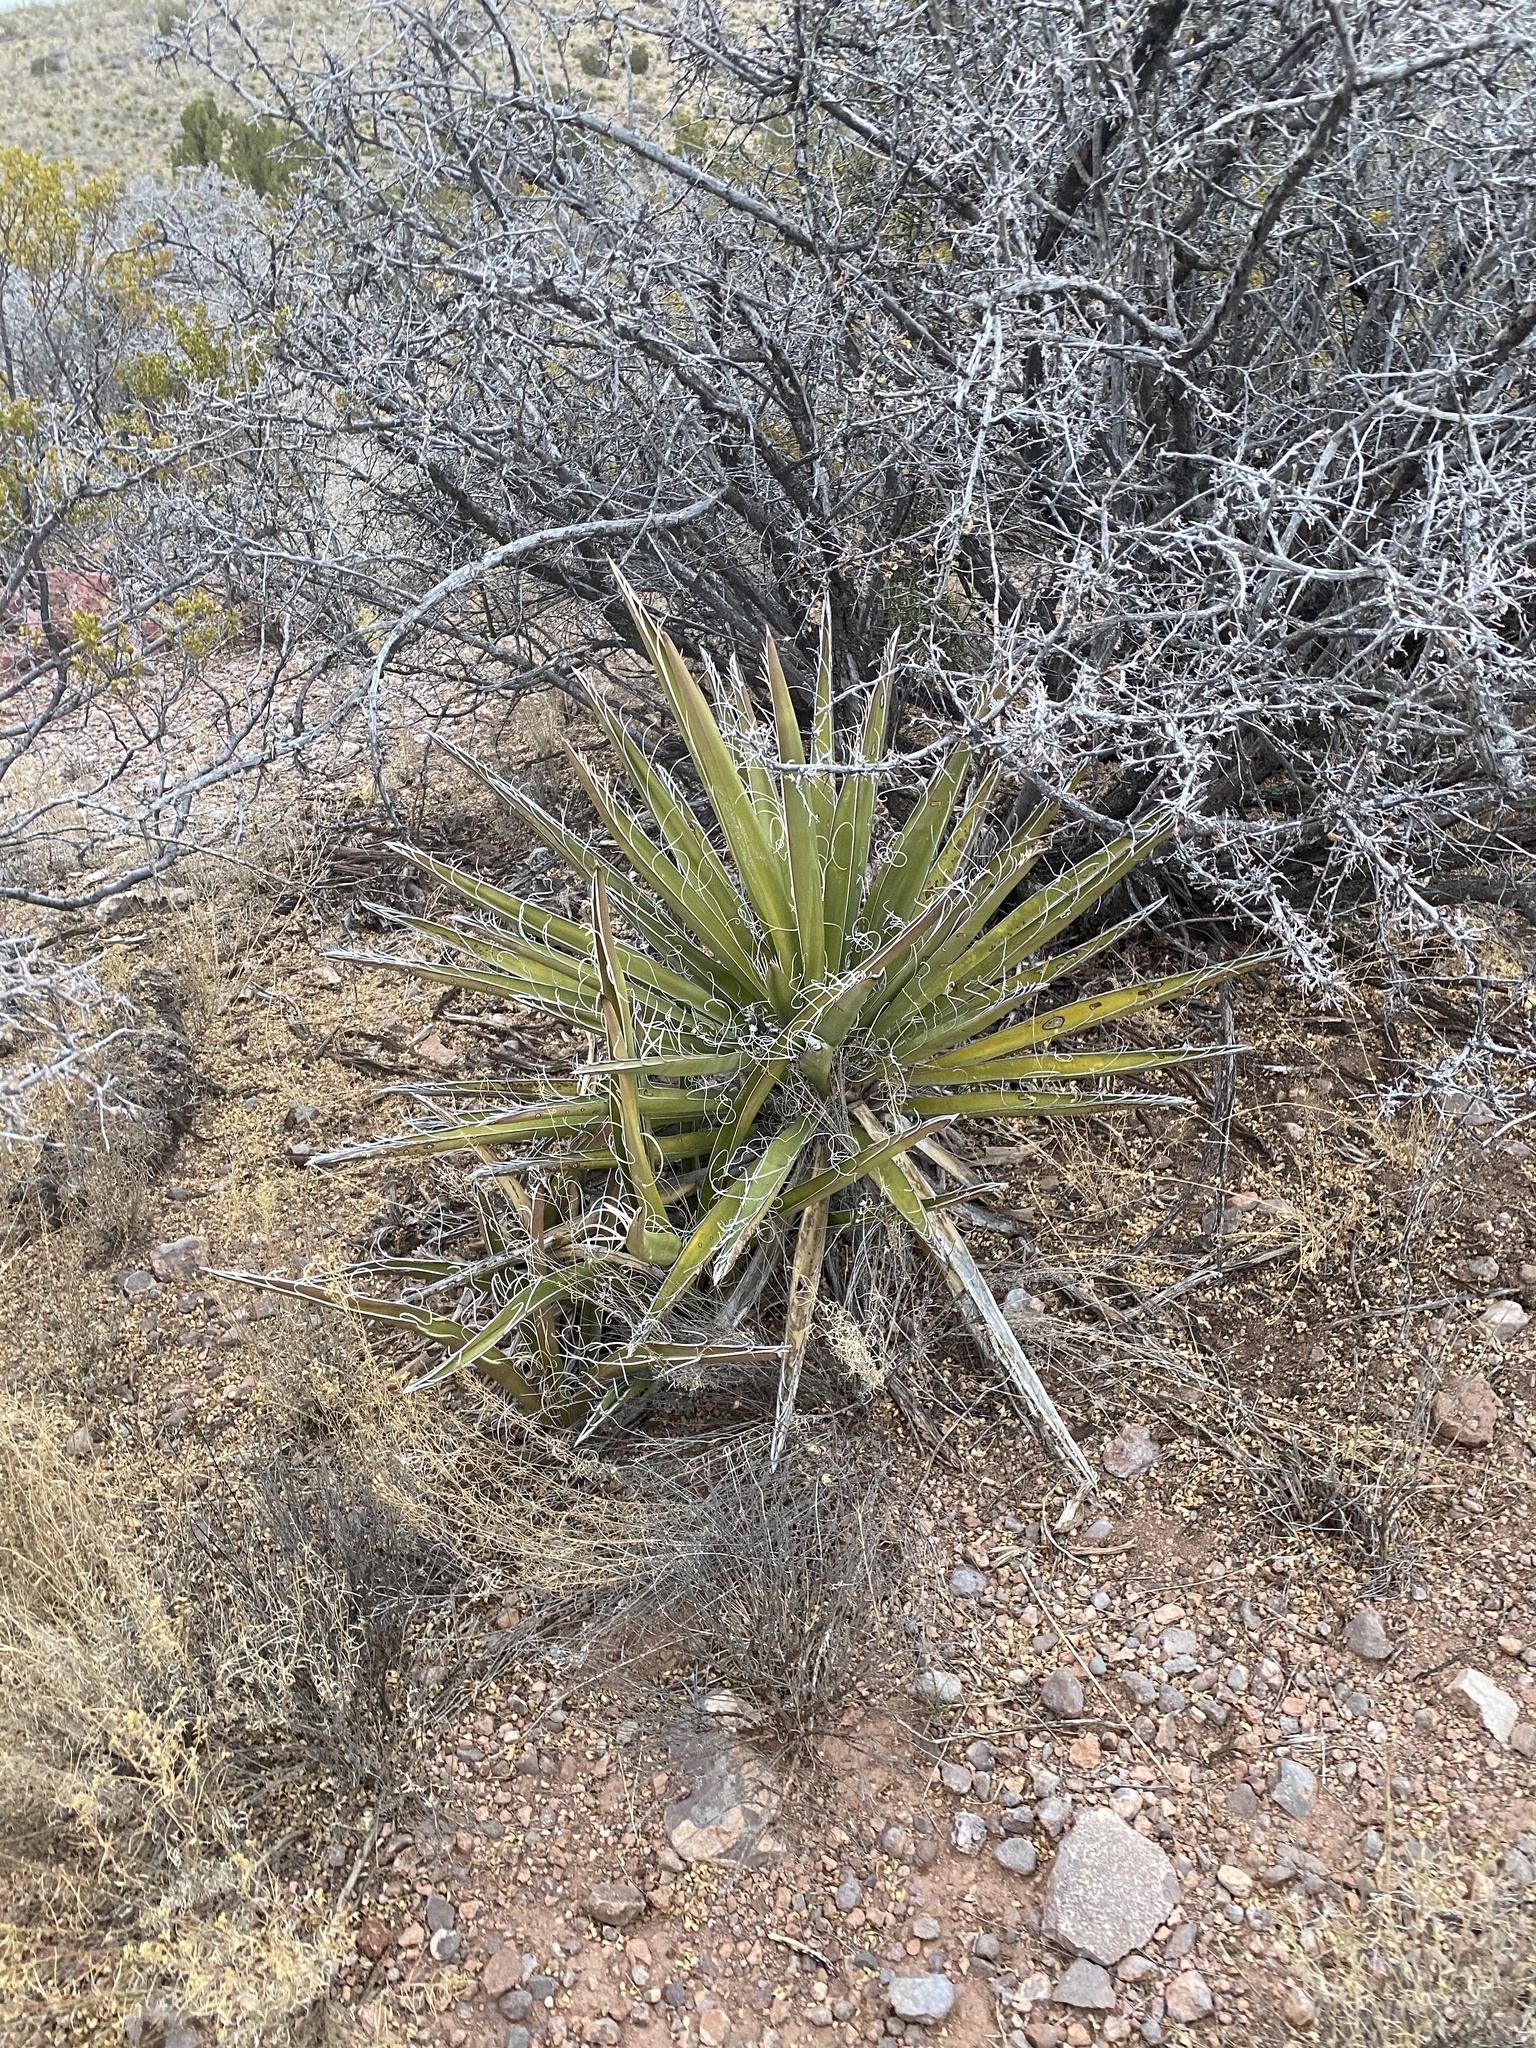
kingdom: Plantae
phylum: Tracheophyta
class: Liliopsida
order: Asparagales
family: Asparagaceae
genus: Yucca
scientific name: Yucca baccata
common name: Banana yucca
